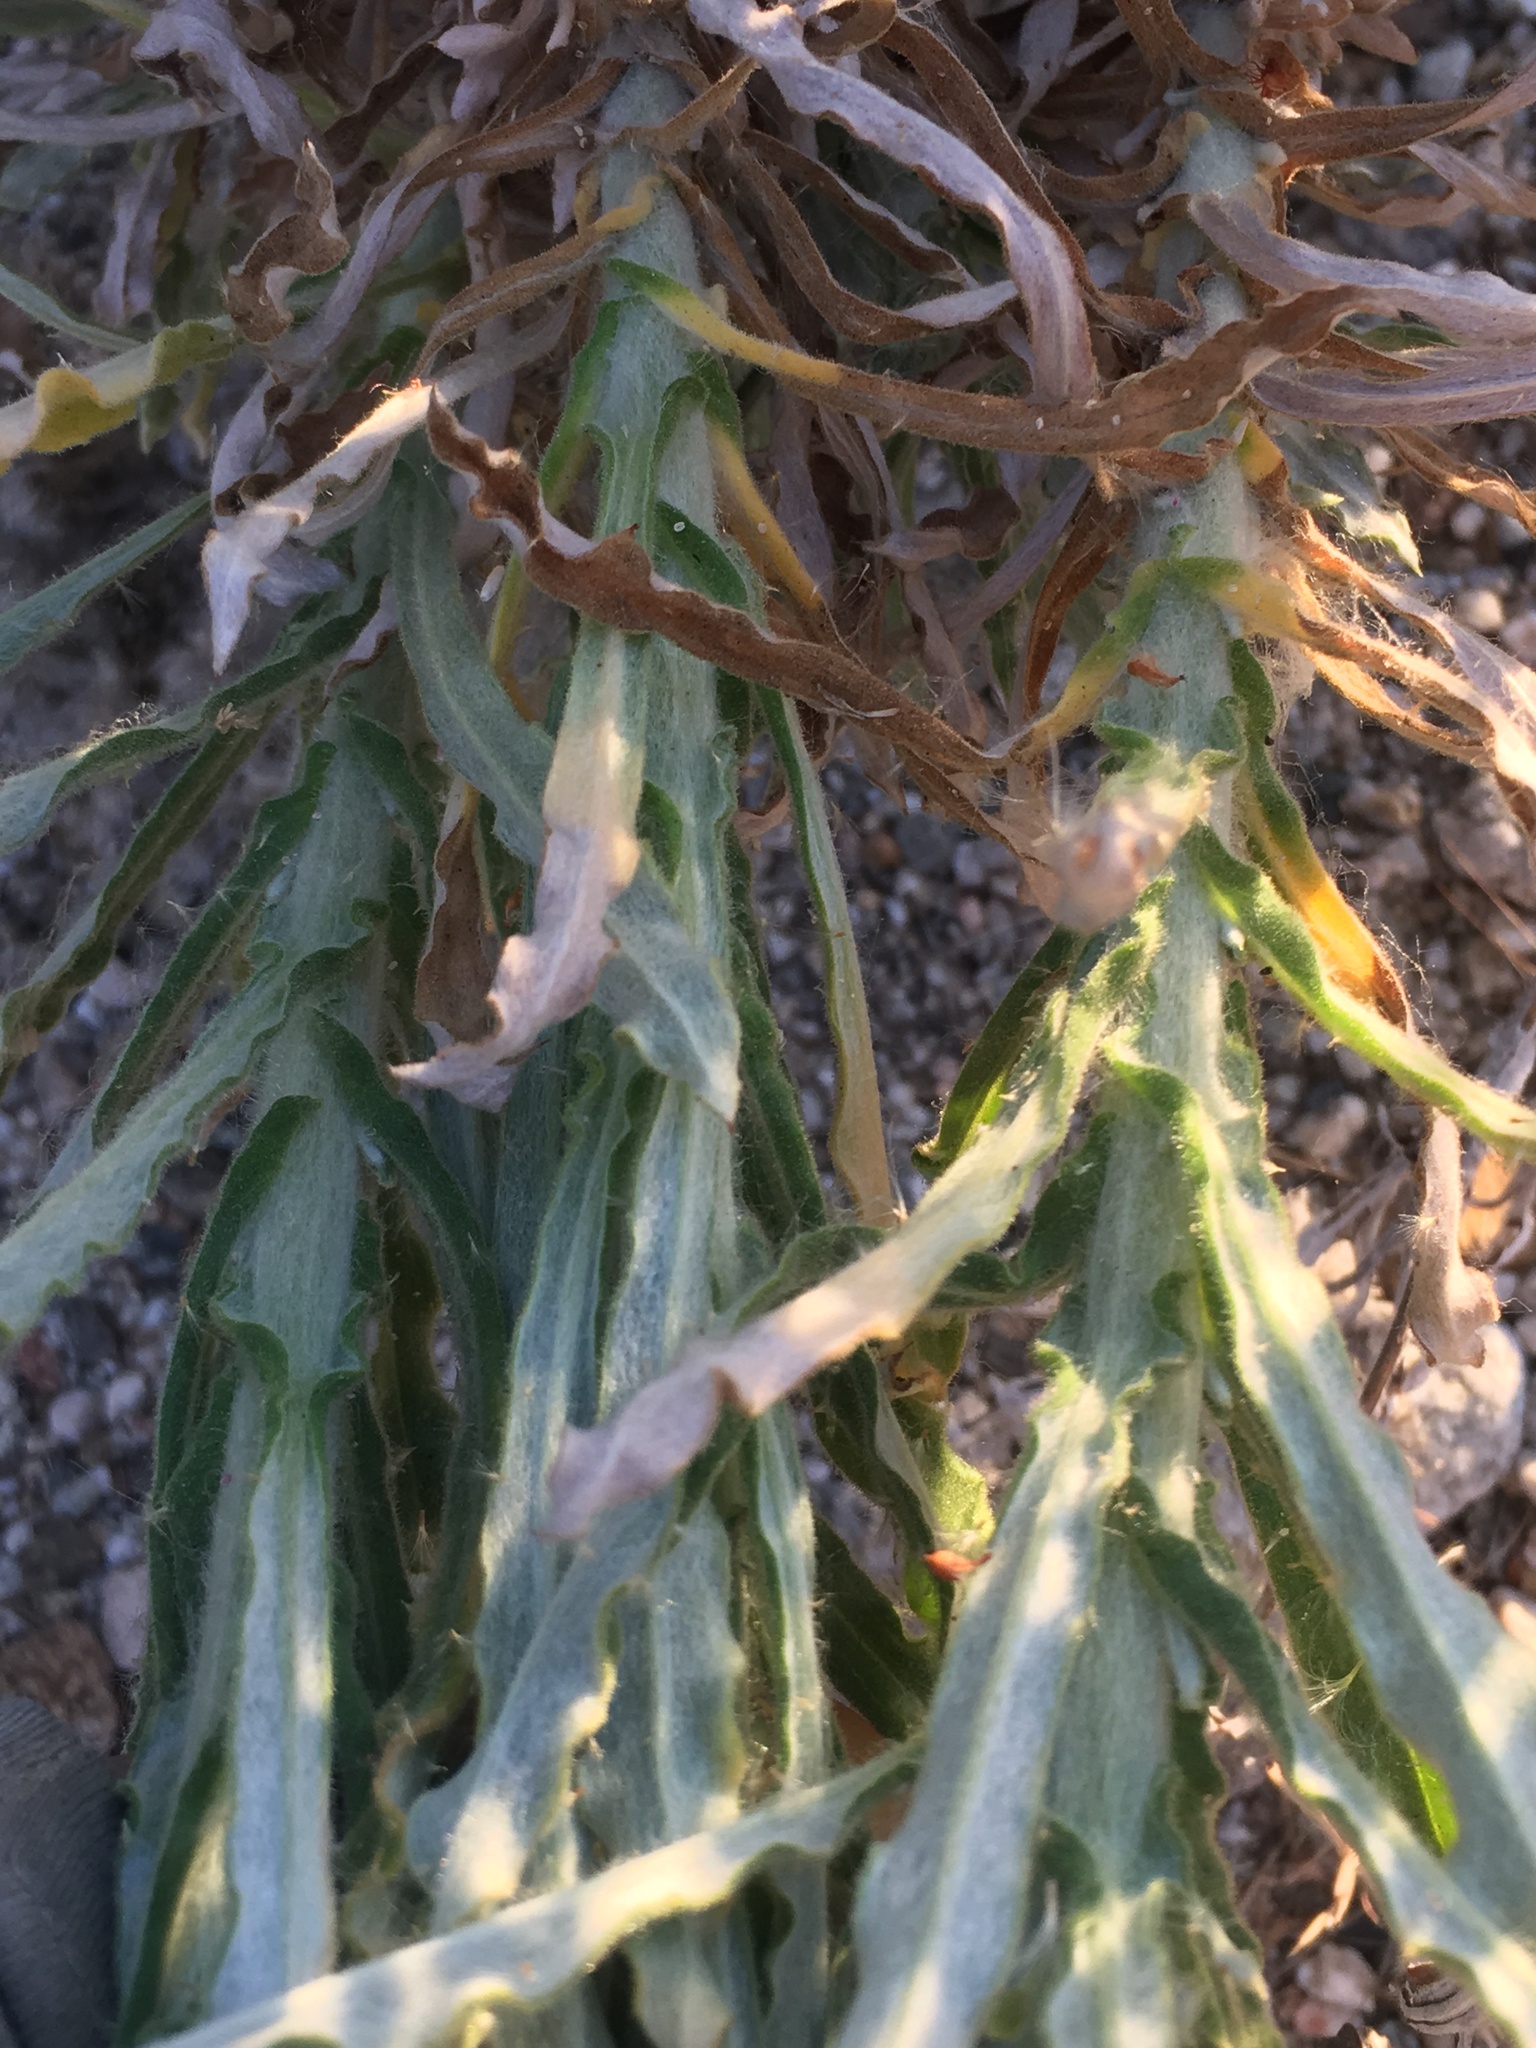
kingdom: Plantae
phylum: Tracheophyta
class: Magnoliopsida
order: Asterales
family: Asteraceae
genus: Pseudognaphalium
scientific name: Pseudognaphalium leucocephalum
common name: White cudweed
